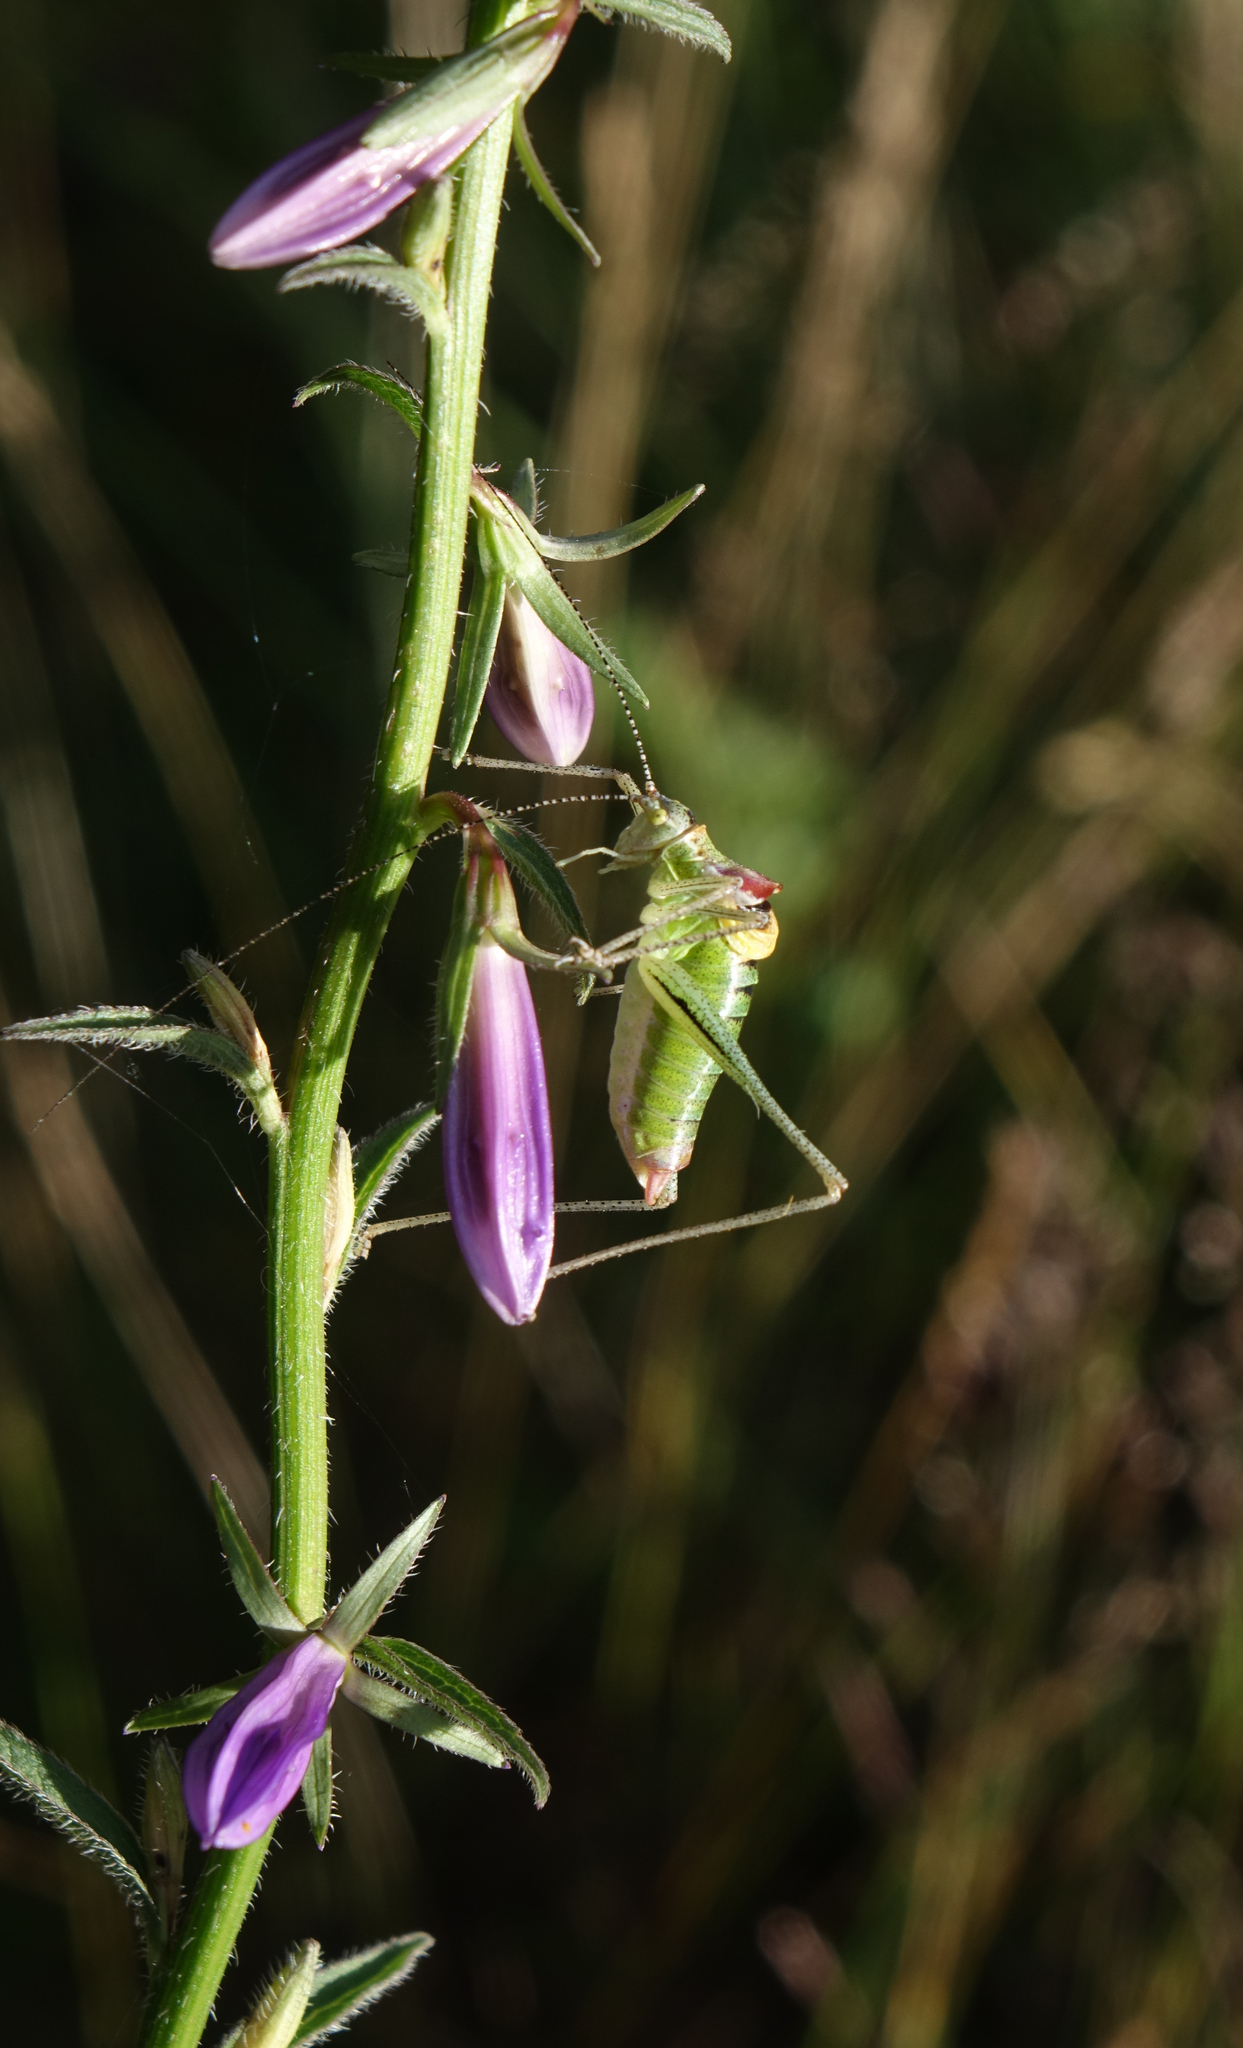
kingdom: Plantae
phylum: Tracheophyta
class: Magnoliopsida
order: Asterales
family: Campanulaceae
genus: Campanula
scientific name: Campanula rapunculoides
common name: Creeping bellflower
